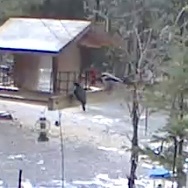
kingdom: Animalia
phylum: Chordata
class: Aves
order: Passeriformes
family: Sittidae
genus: Sitta
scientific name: Sitta pygmaea
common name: Pygmy nuthatch
